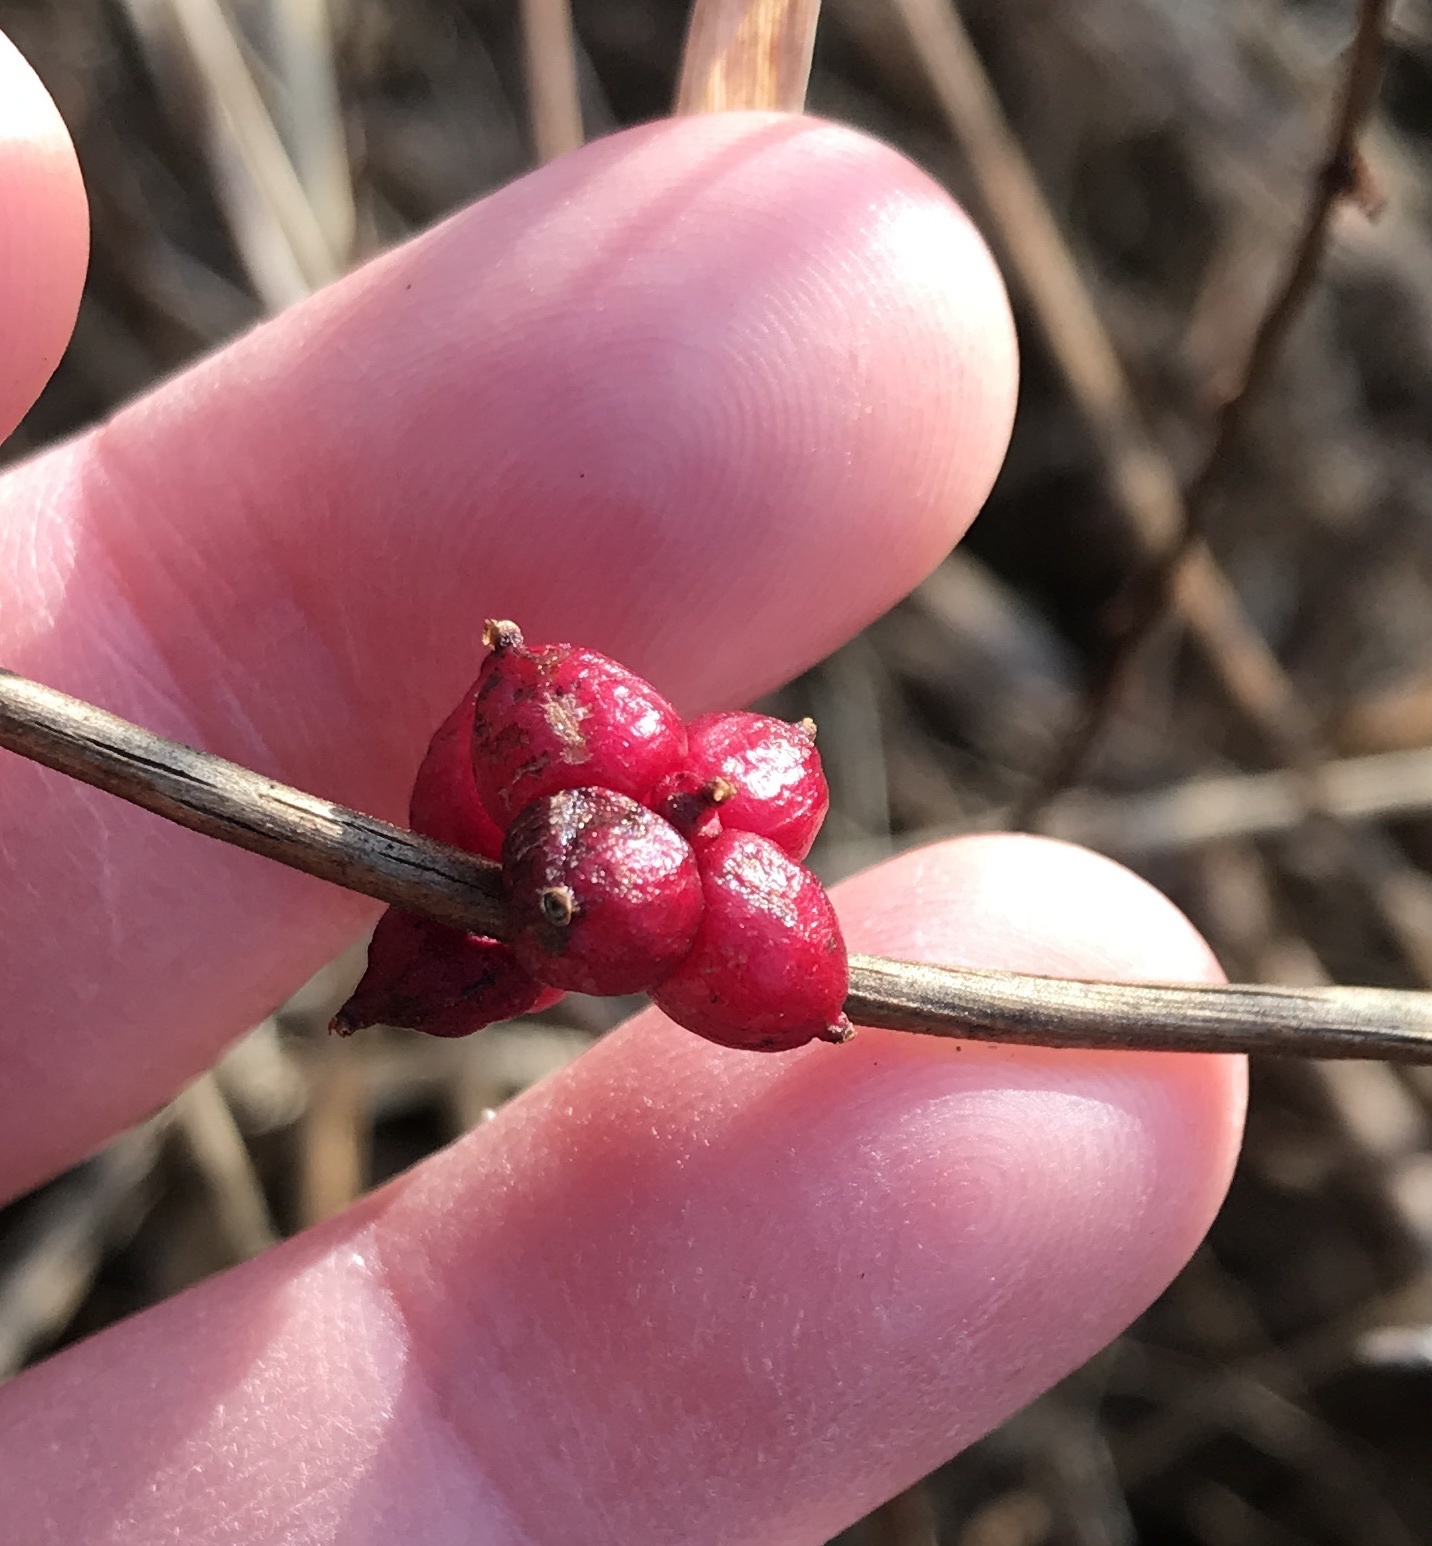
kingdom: Plantae
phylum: Tracheophyta
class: Magnoliopsida
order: Dipsacales
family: Caprifoliaceae
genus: Symphoricarpos
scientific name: Symphoricarpos orbiculatus
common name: Coralberry
